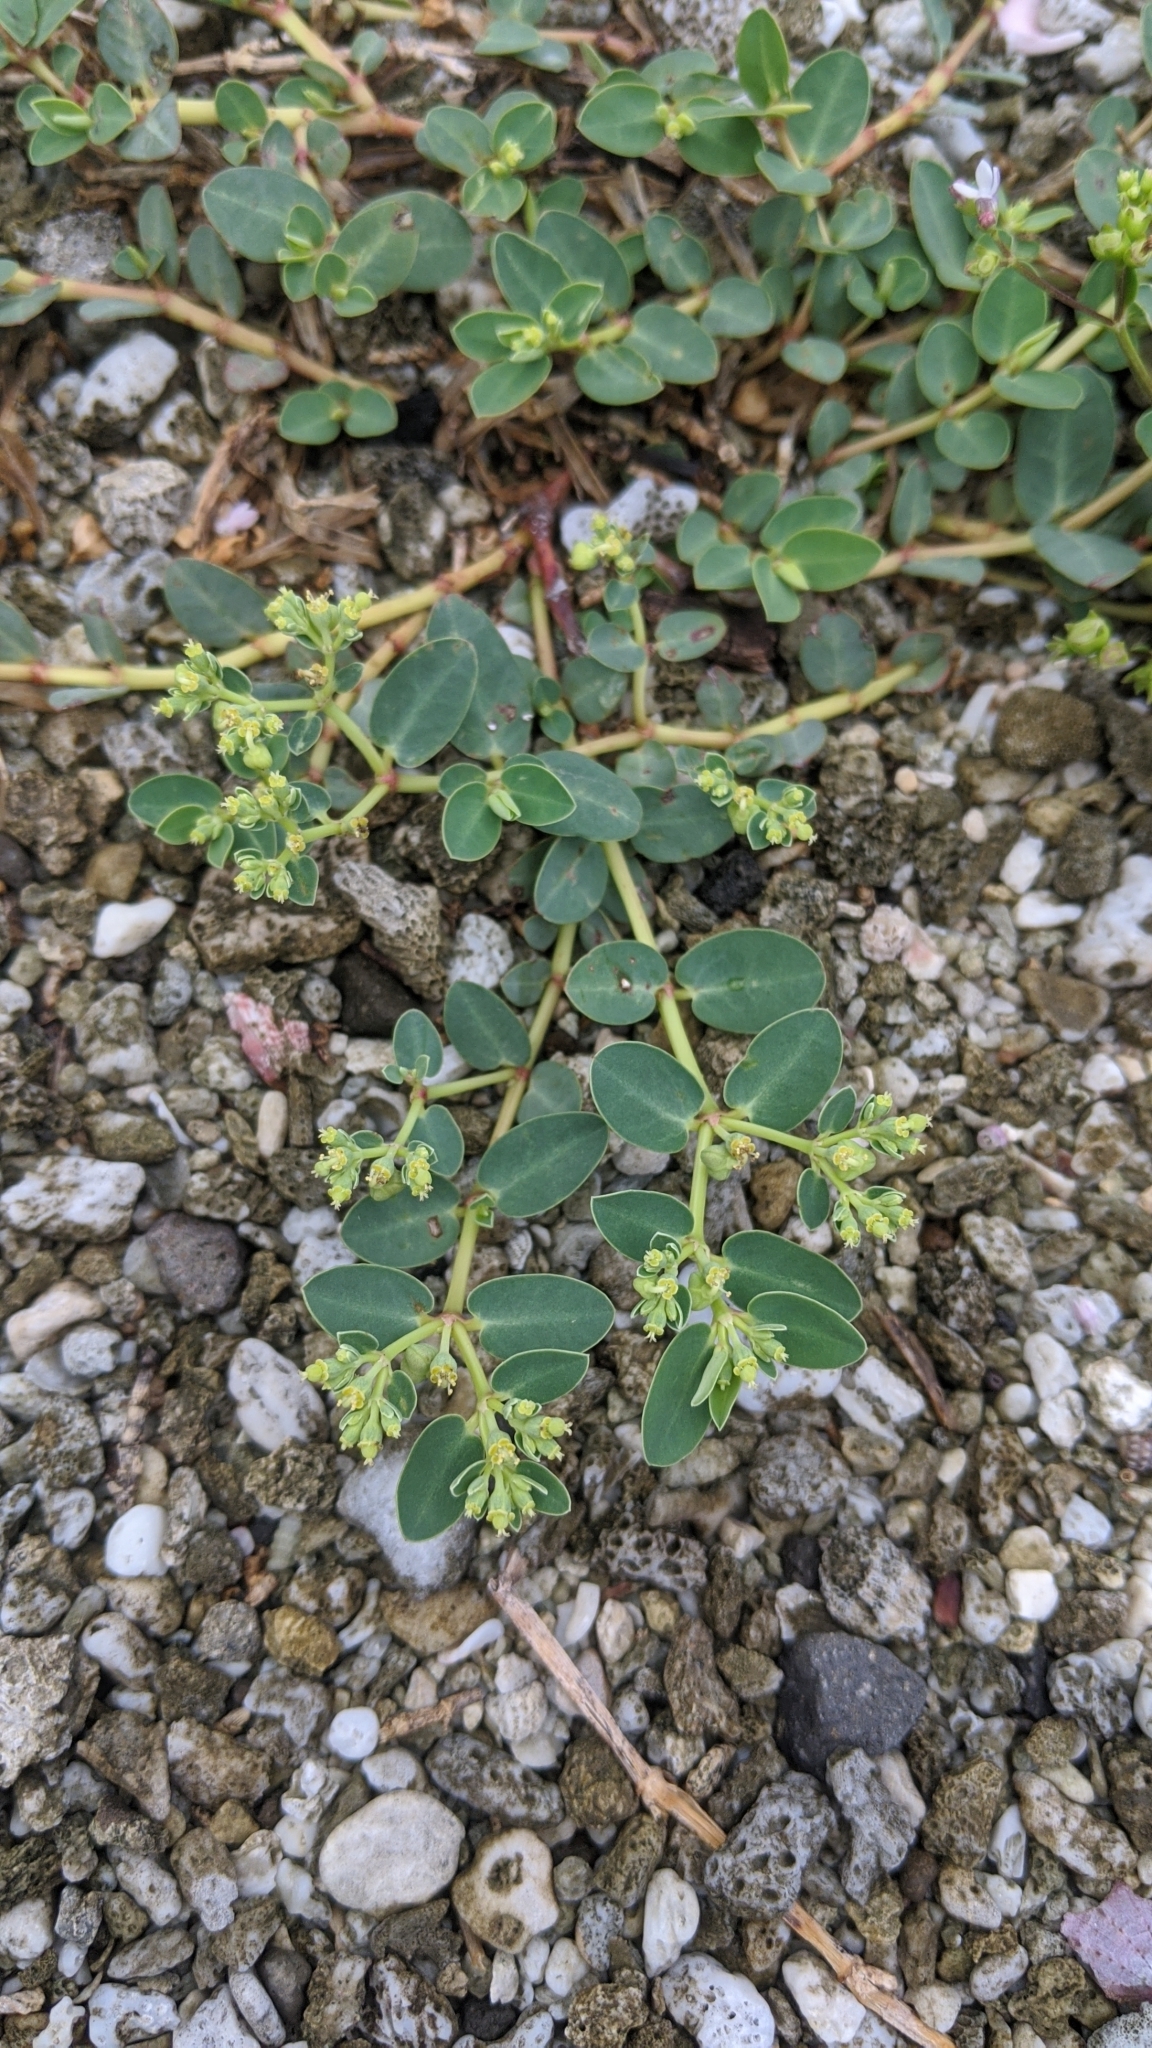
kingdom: Plantae
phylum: Tracheophyta
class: Magnoliopsida
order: Malpighiales
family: Euphorbiaceae
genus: Euphorbia
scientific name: Euphorbia atoto
